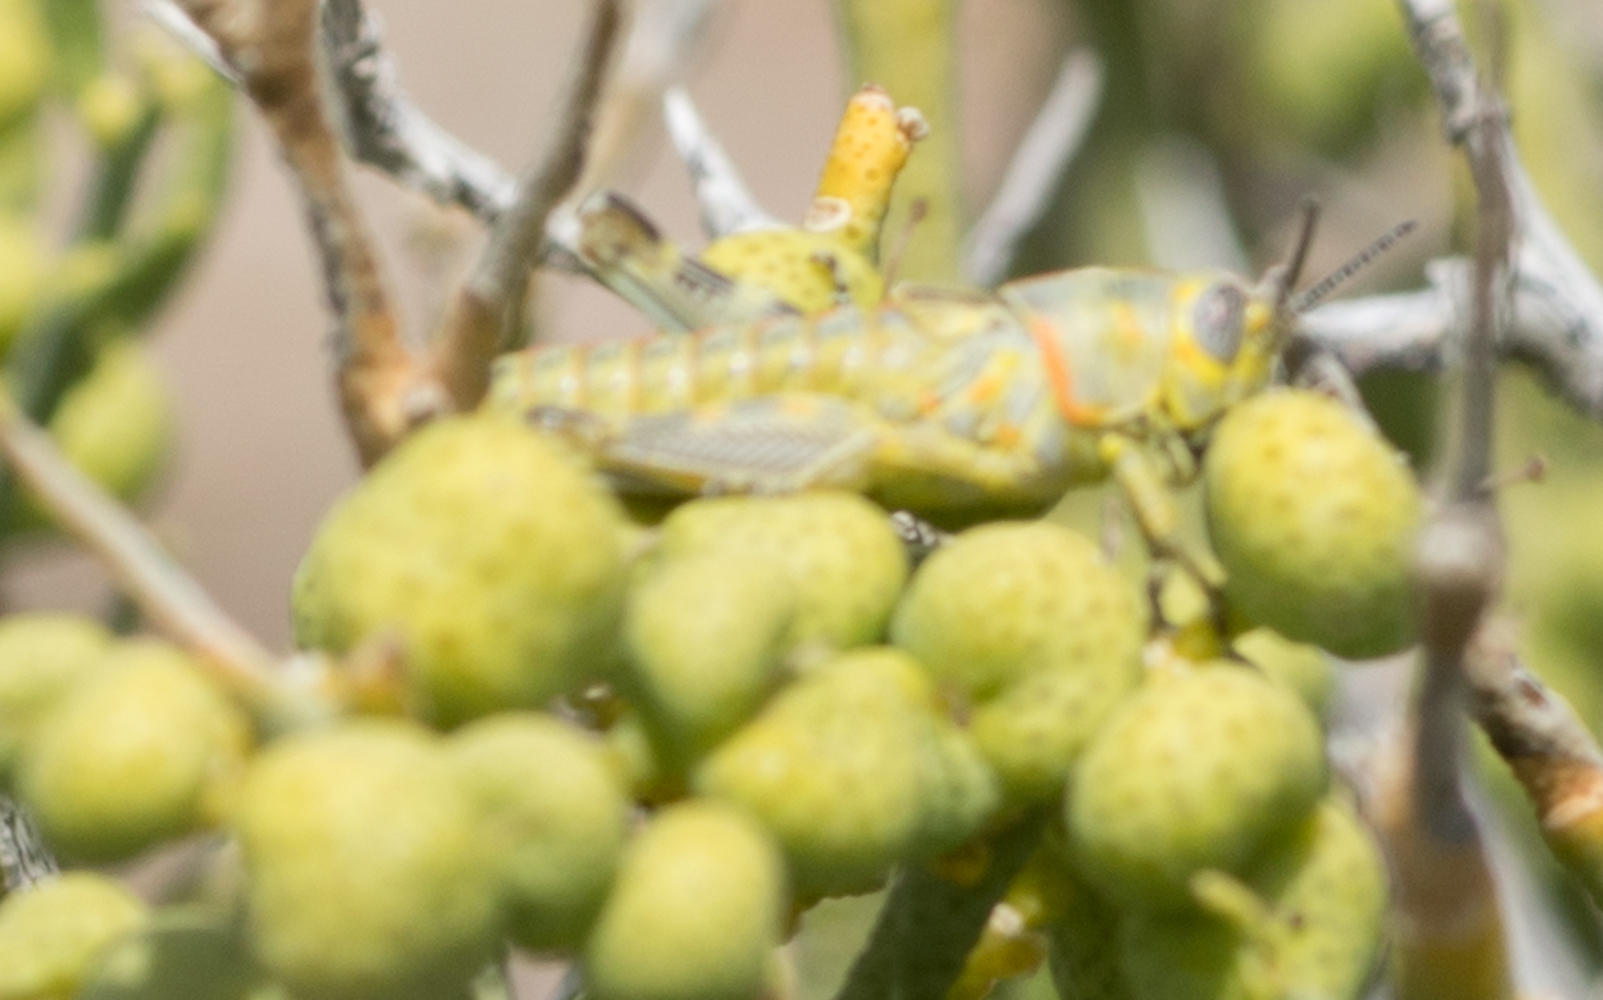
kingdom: Animalia
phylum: Arthropoda
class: Insecta
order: Orthoptera
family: Acrididae
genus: Poecilotettix
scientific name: Poecilotettix sanguineus
